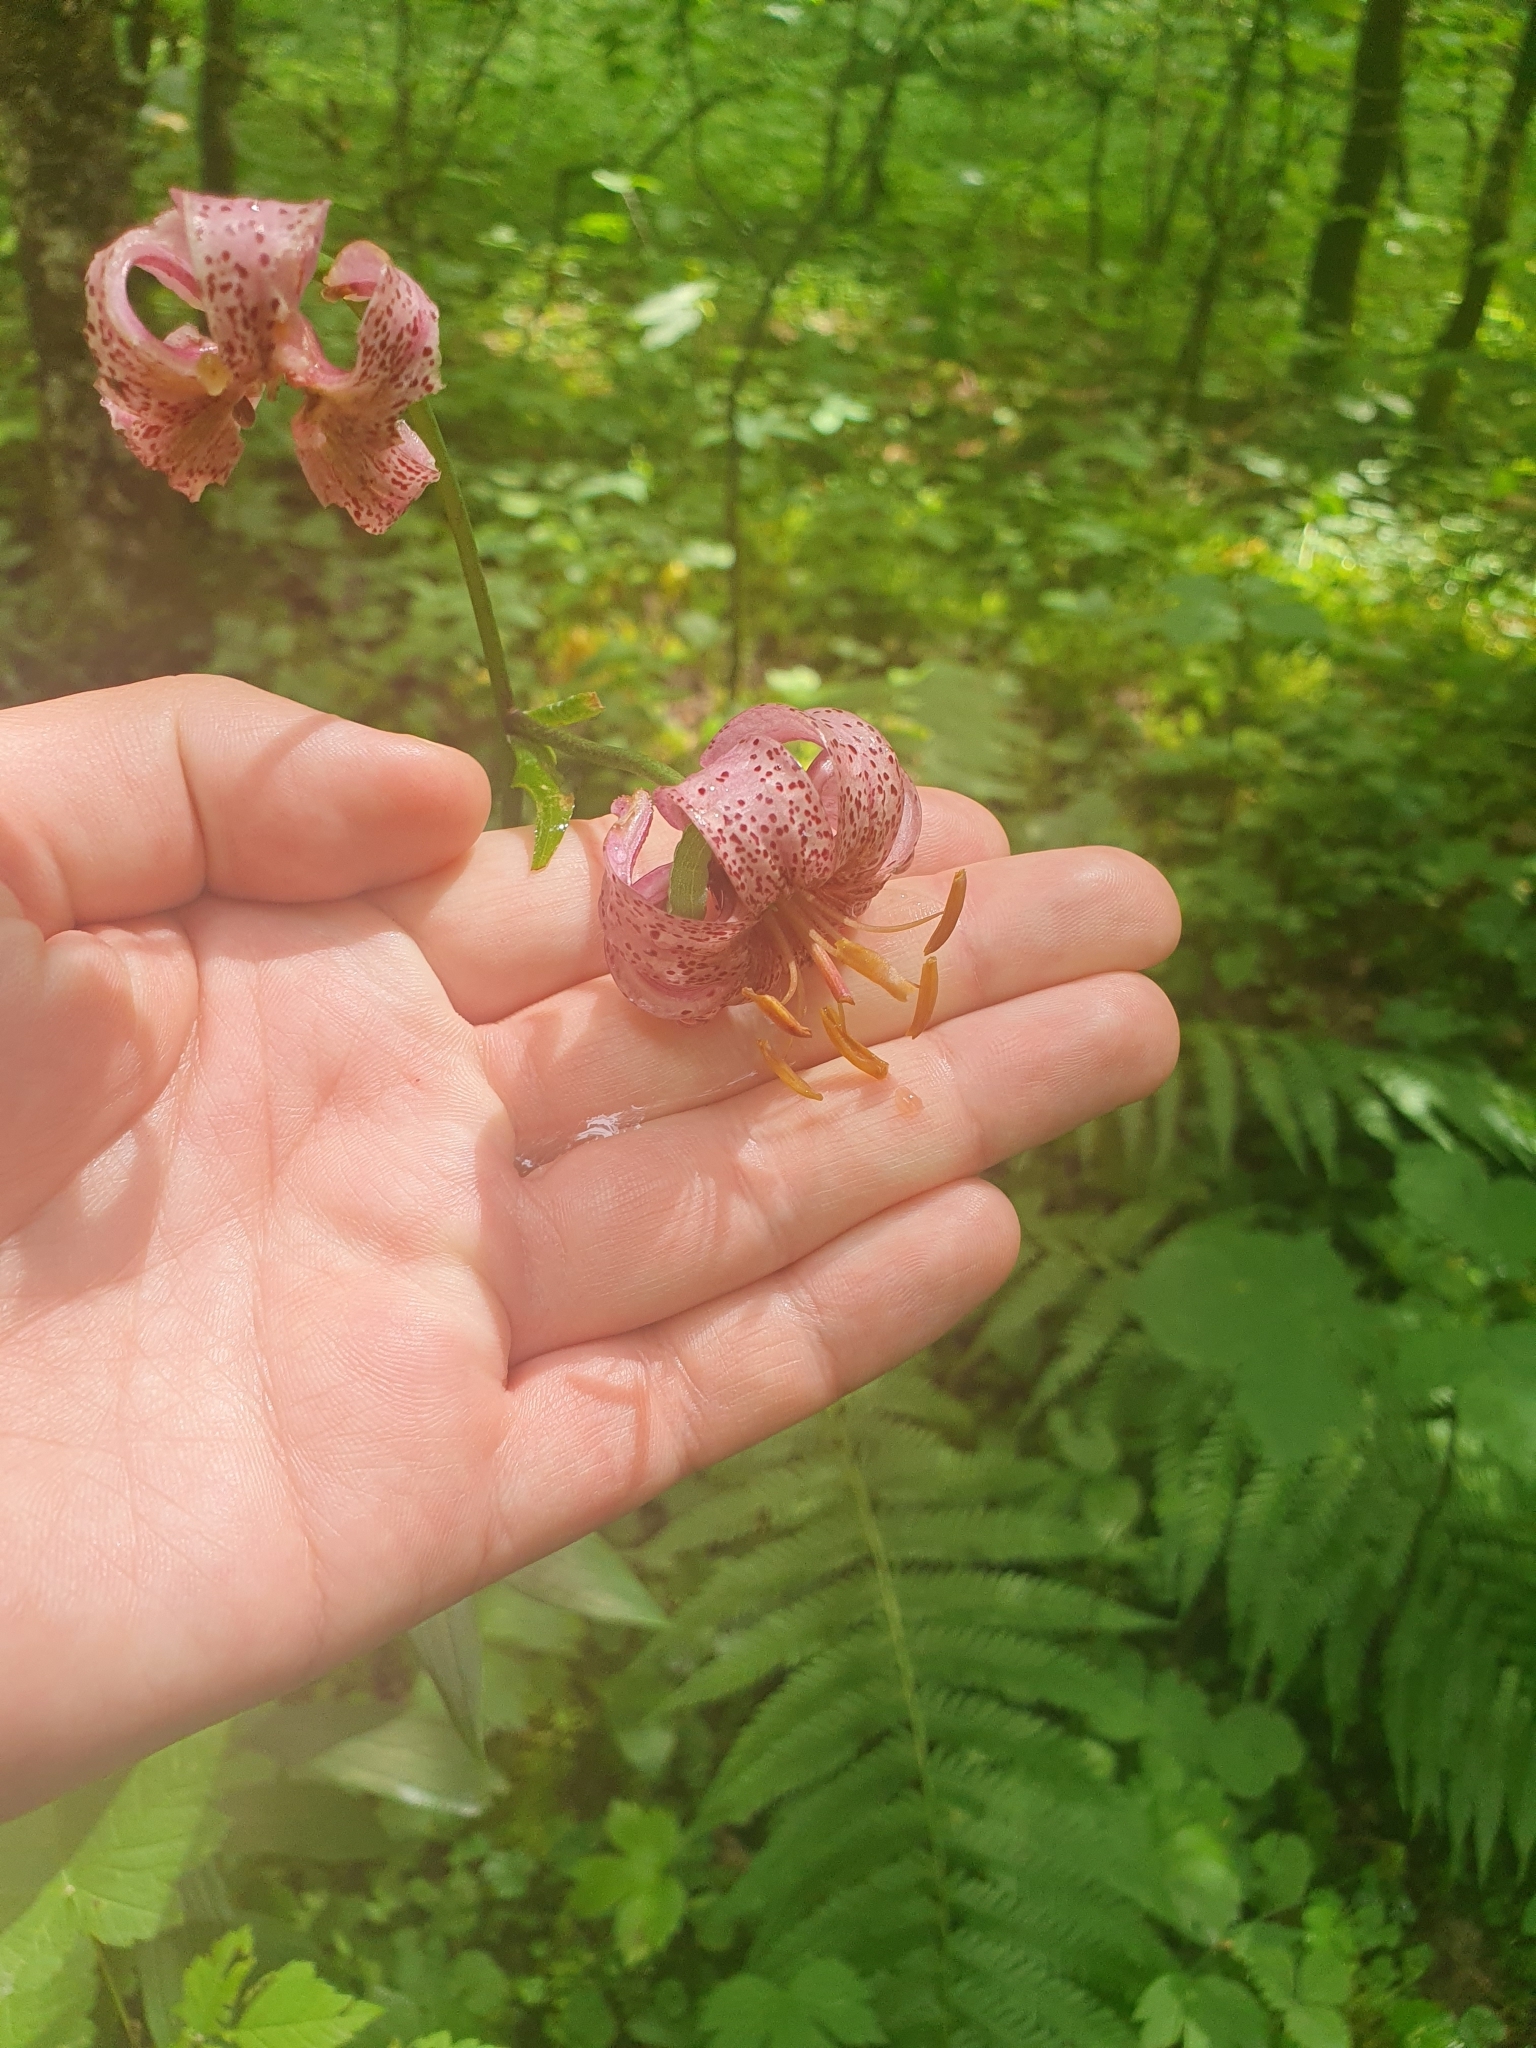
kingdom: Plantae
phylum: Tracheophyta
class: Liliopsida
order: Liliales
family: Liliaceae
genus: Lilium
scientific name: Lilium martagon
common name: Martagon lily
